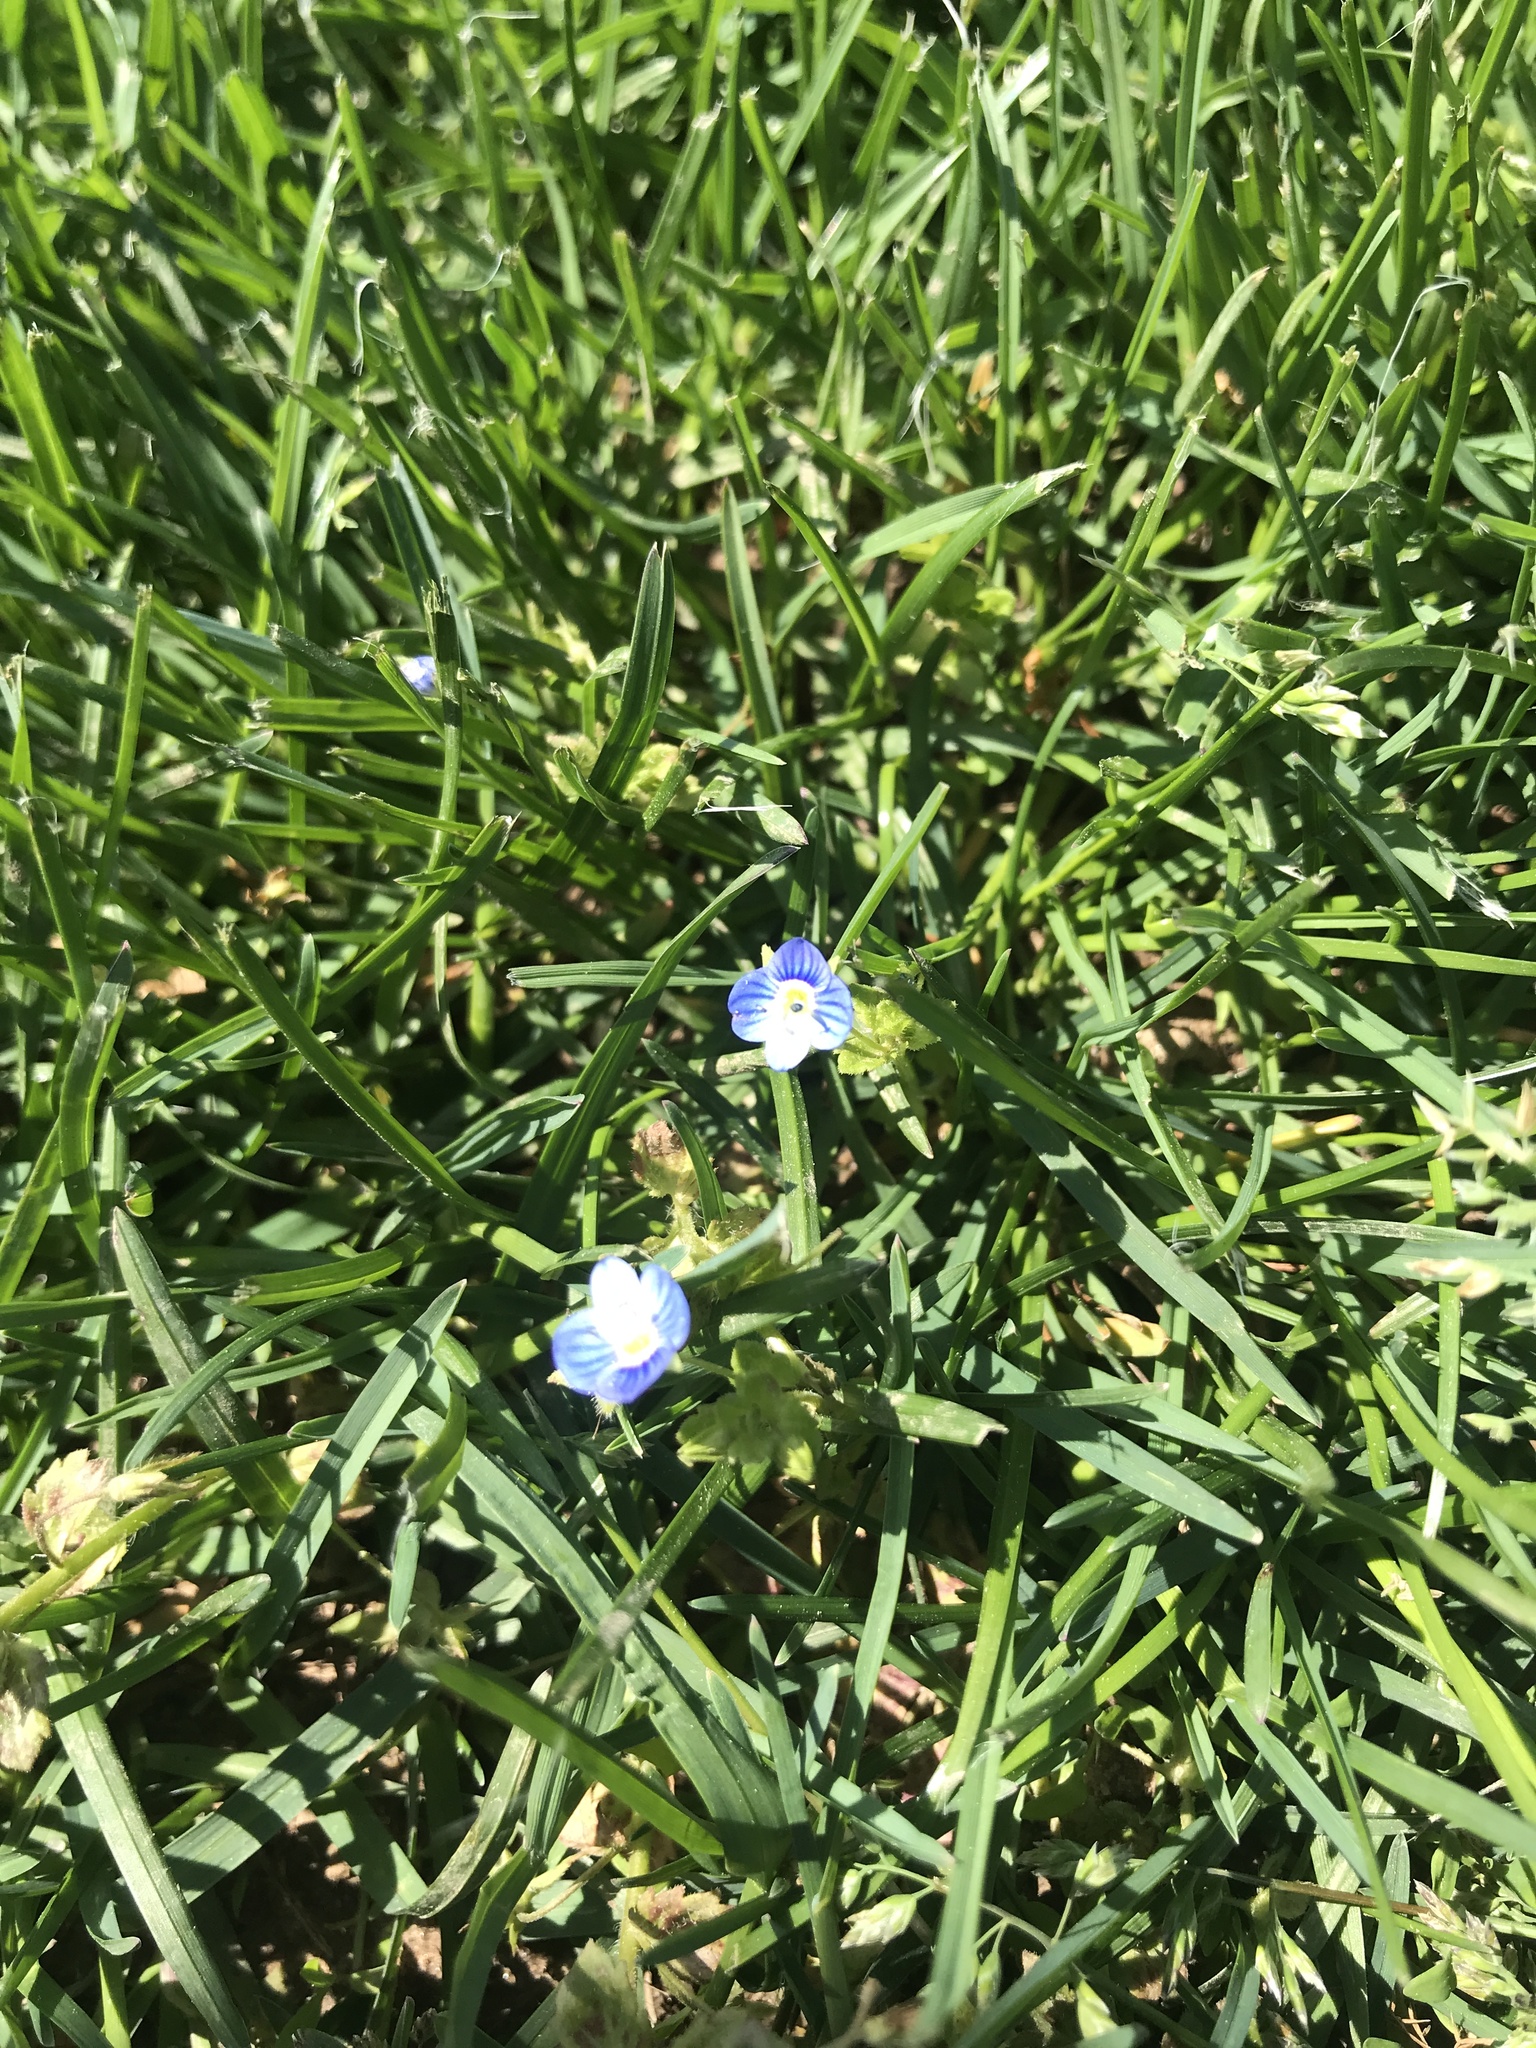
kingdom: Plantae
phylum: Tracheophyta
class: Magnoliopsida
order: Lamiales
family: Plantaginaceae
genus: Veronica
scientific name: Veronica persica
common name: Common field-speedwell
